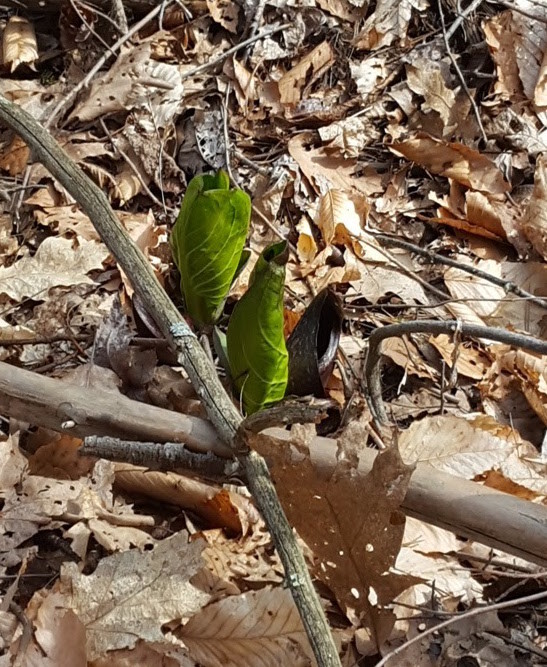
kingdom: Plantae
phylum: Tracheophyta
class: Liliopsida
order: Alismatales
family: Araceae
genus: Symplocarpus
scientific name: Symplocarpus foetidus
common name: Eastern skunk cabbage
